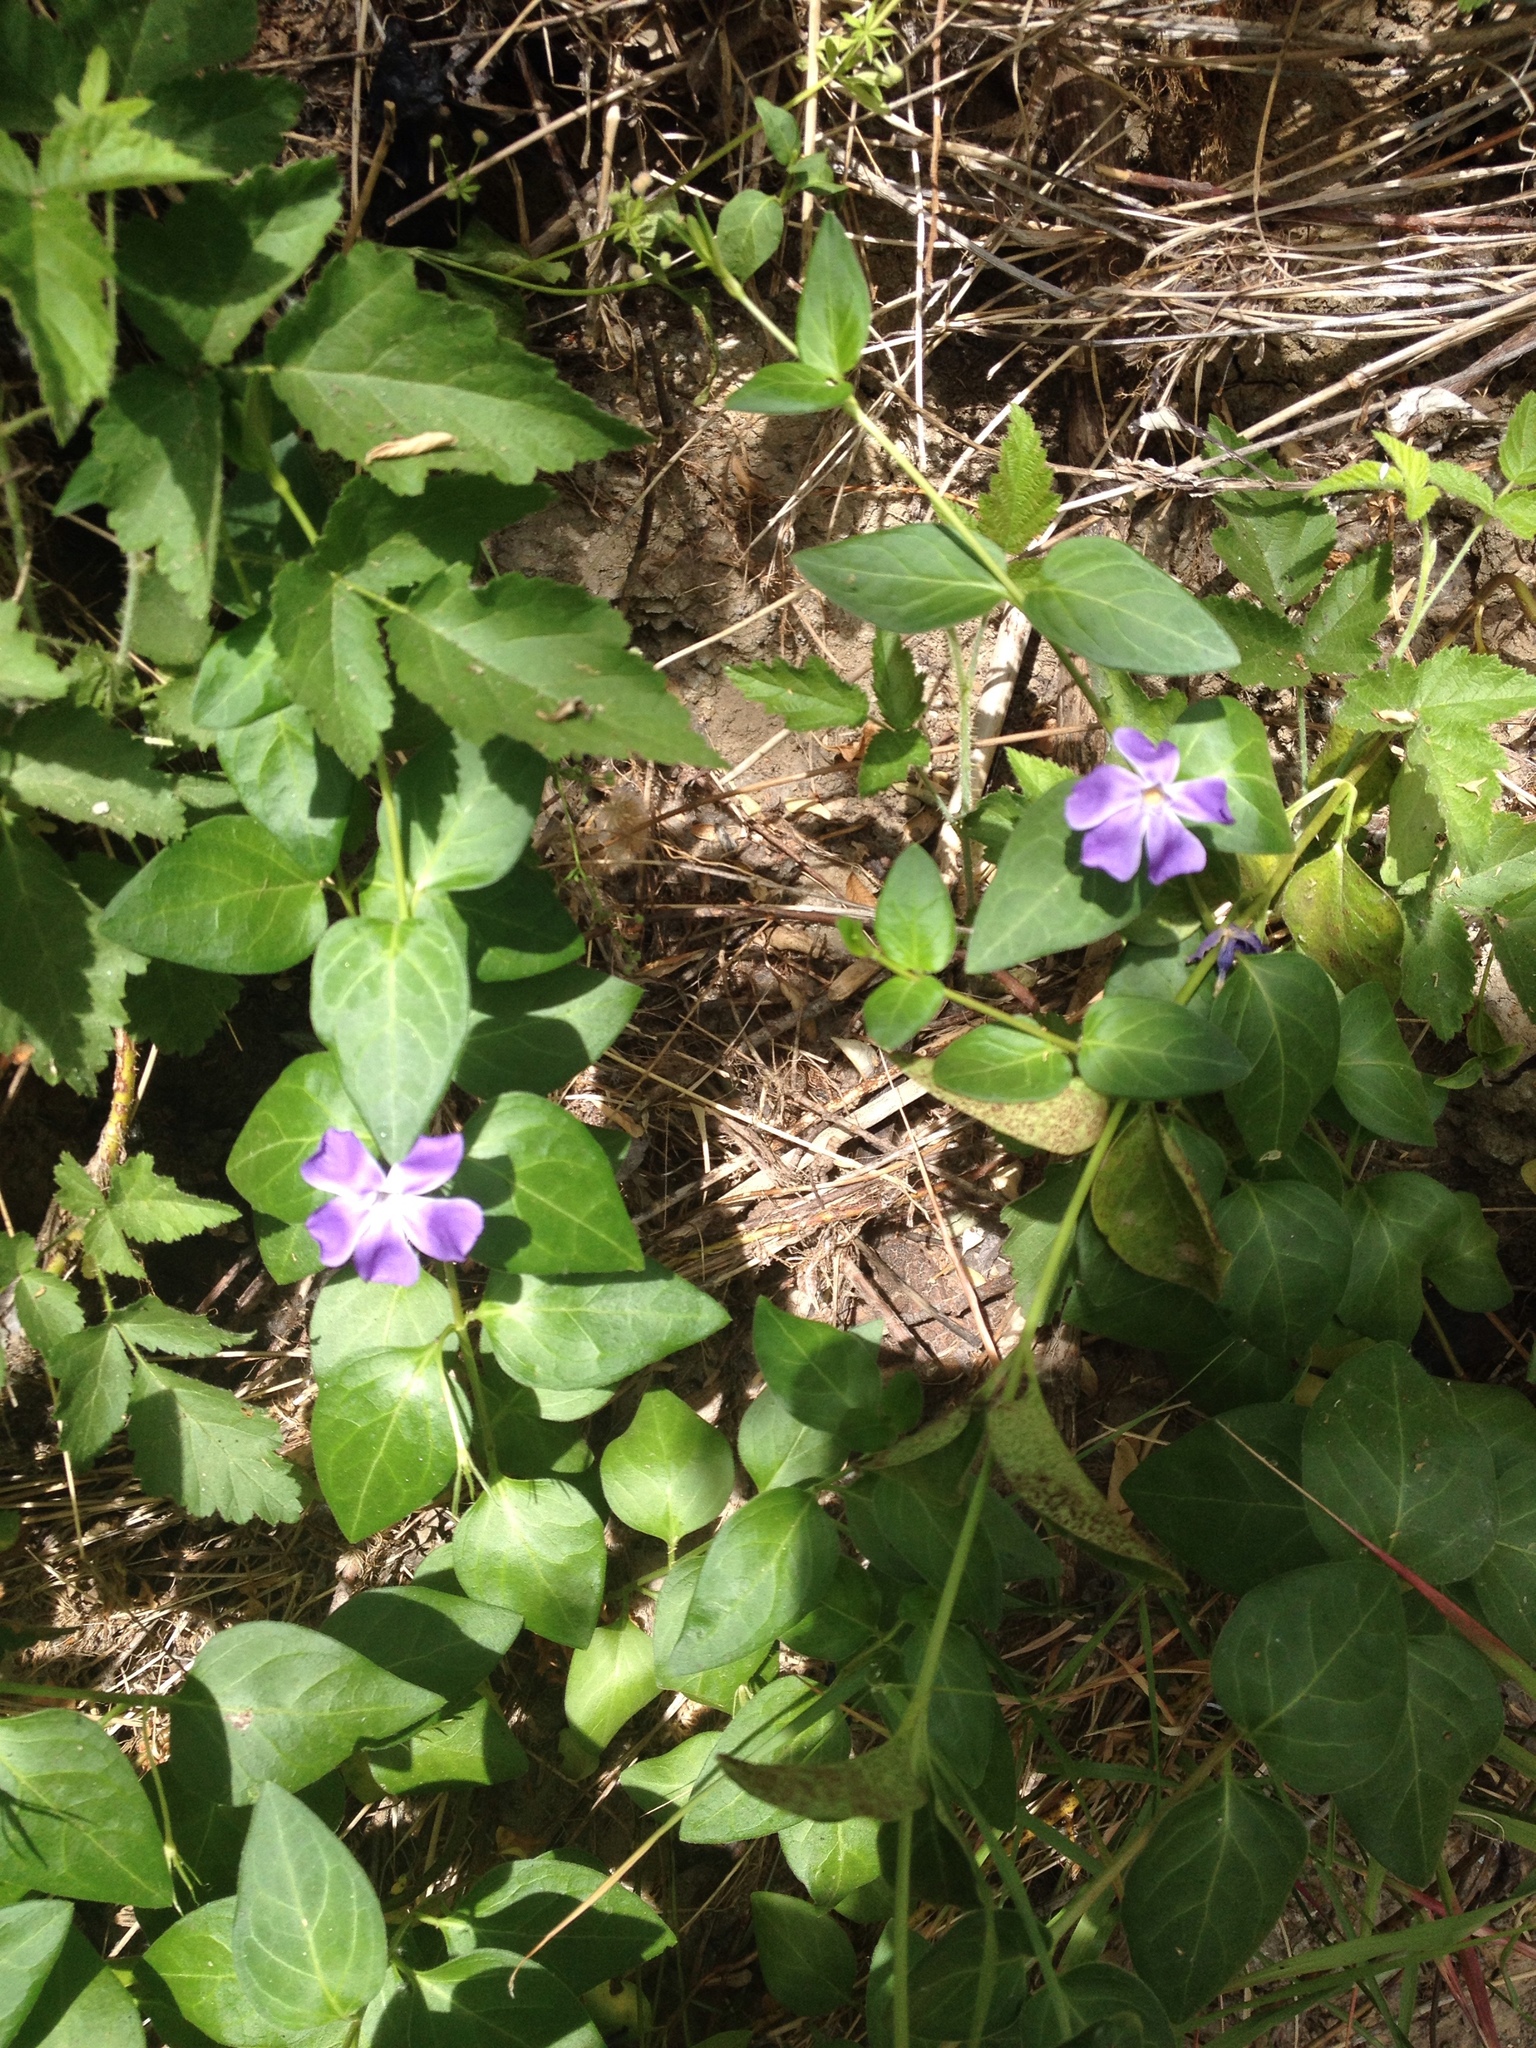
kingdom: Plantae
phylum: Tracheophyta
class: Magnoliopsida
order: Gentianales
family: Apocynaceae
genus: Vinca
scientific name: Vinca major
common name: Greater periwinkle
